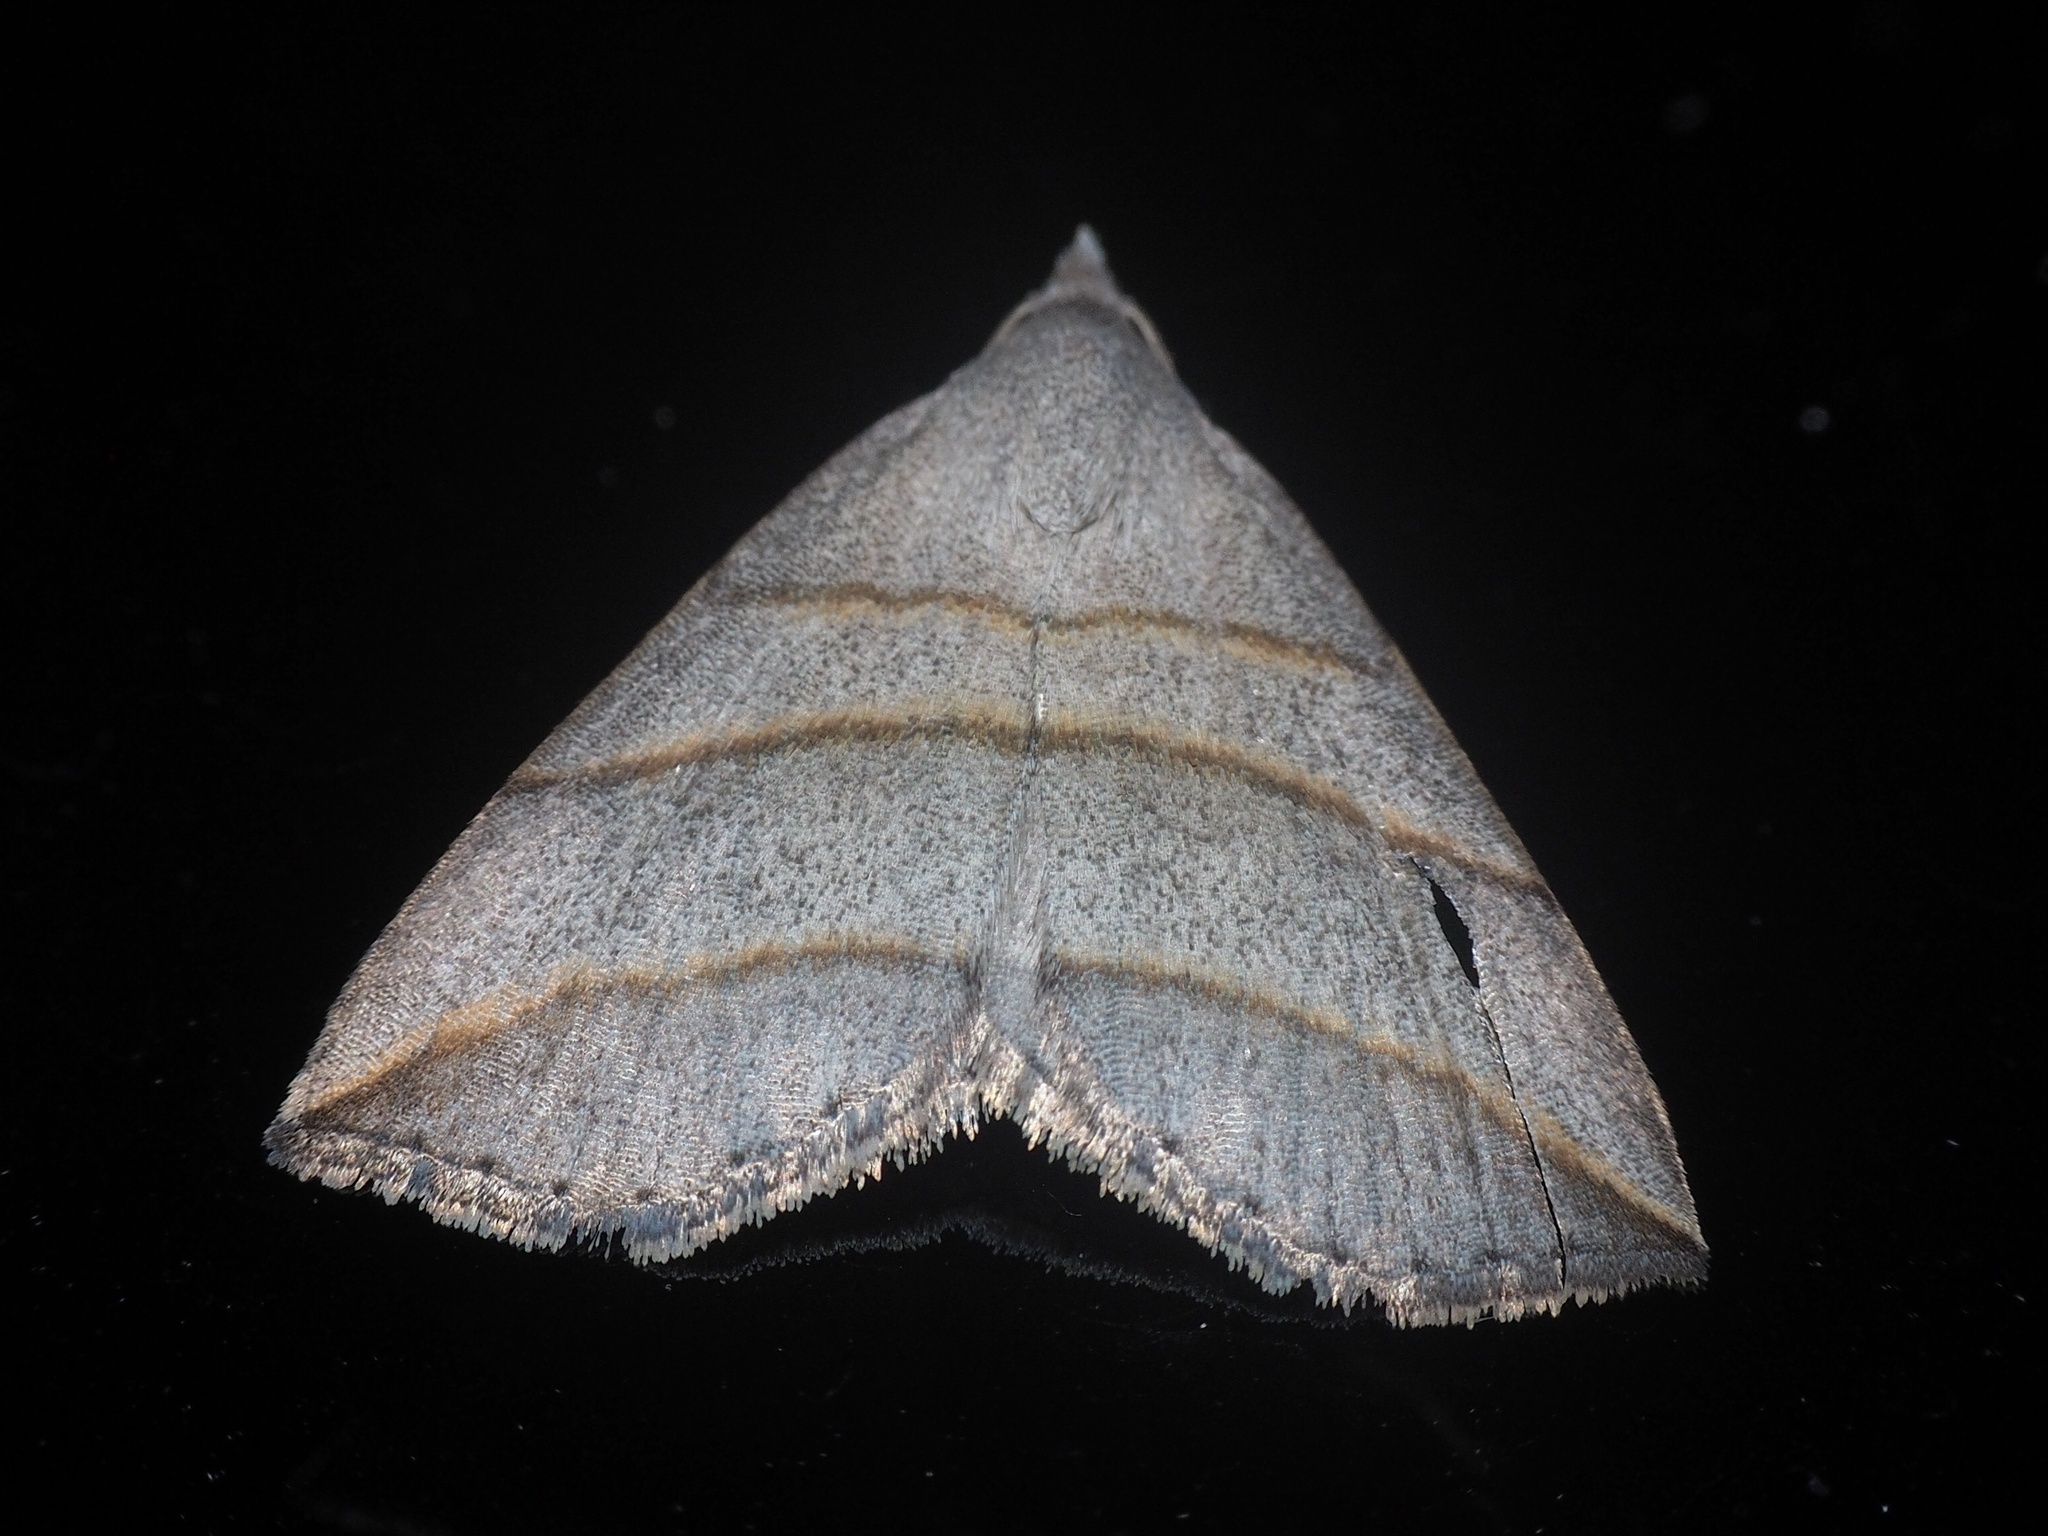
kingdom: Animalia
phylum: Arthropoda
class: Insecta
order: Lepidoptera
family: Erebidae
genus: Colobochyla
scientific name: Colobochyla salicalis
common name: Lesser belle
